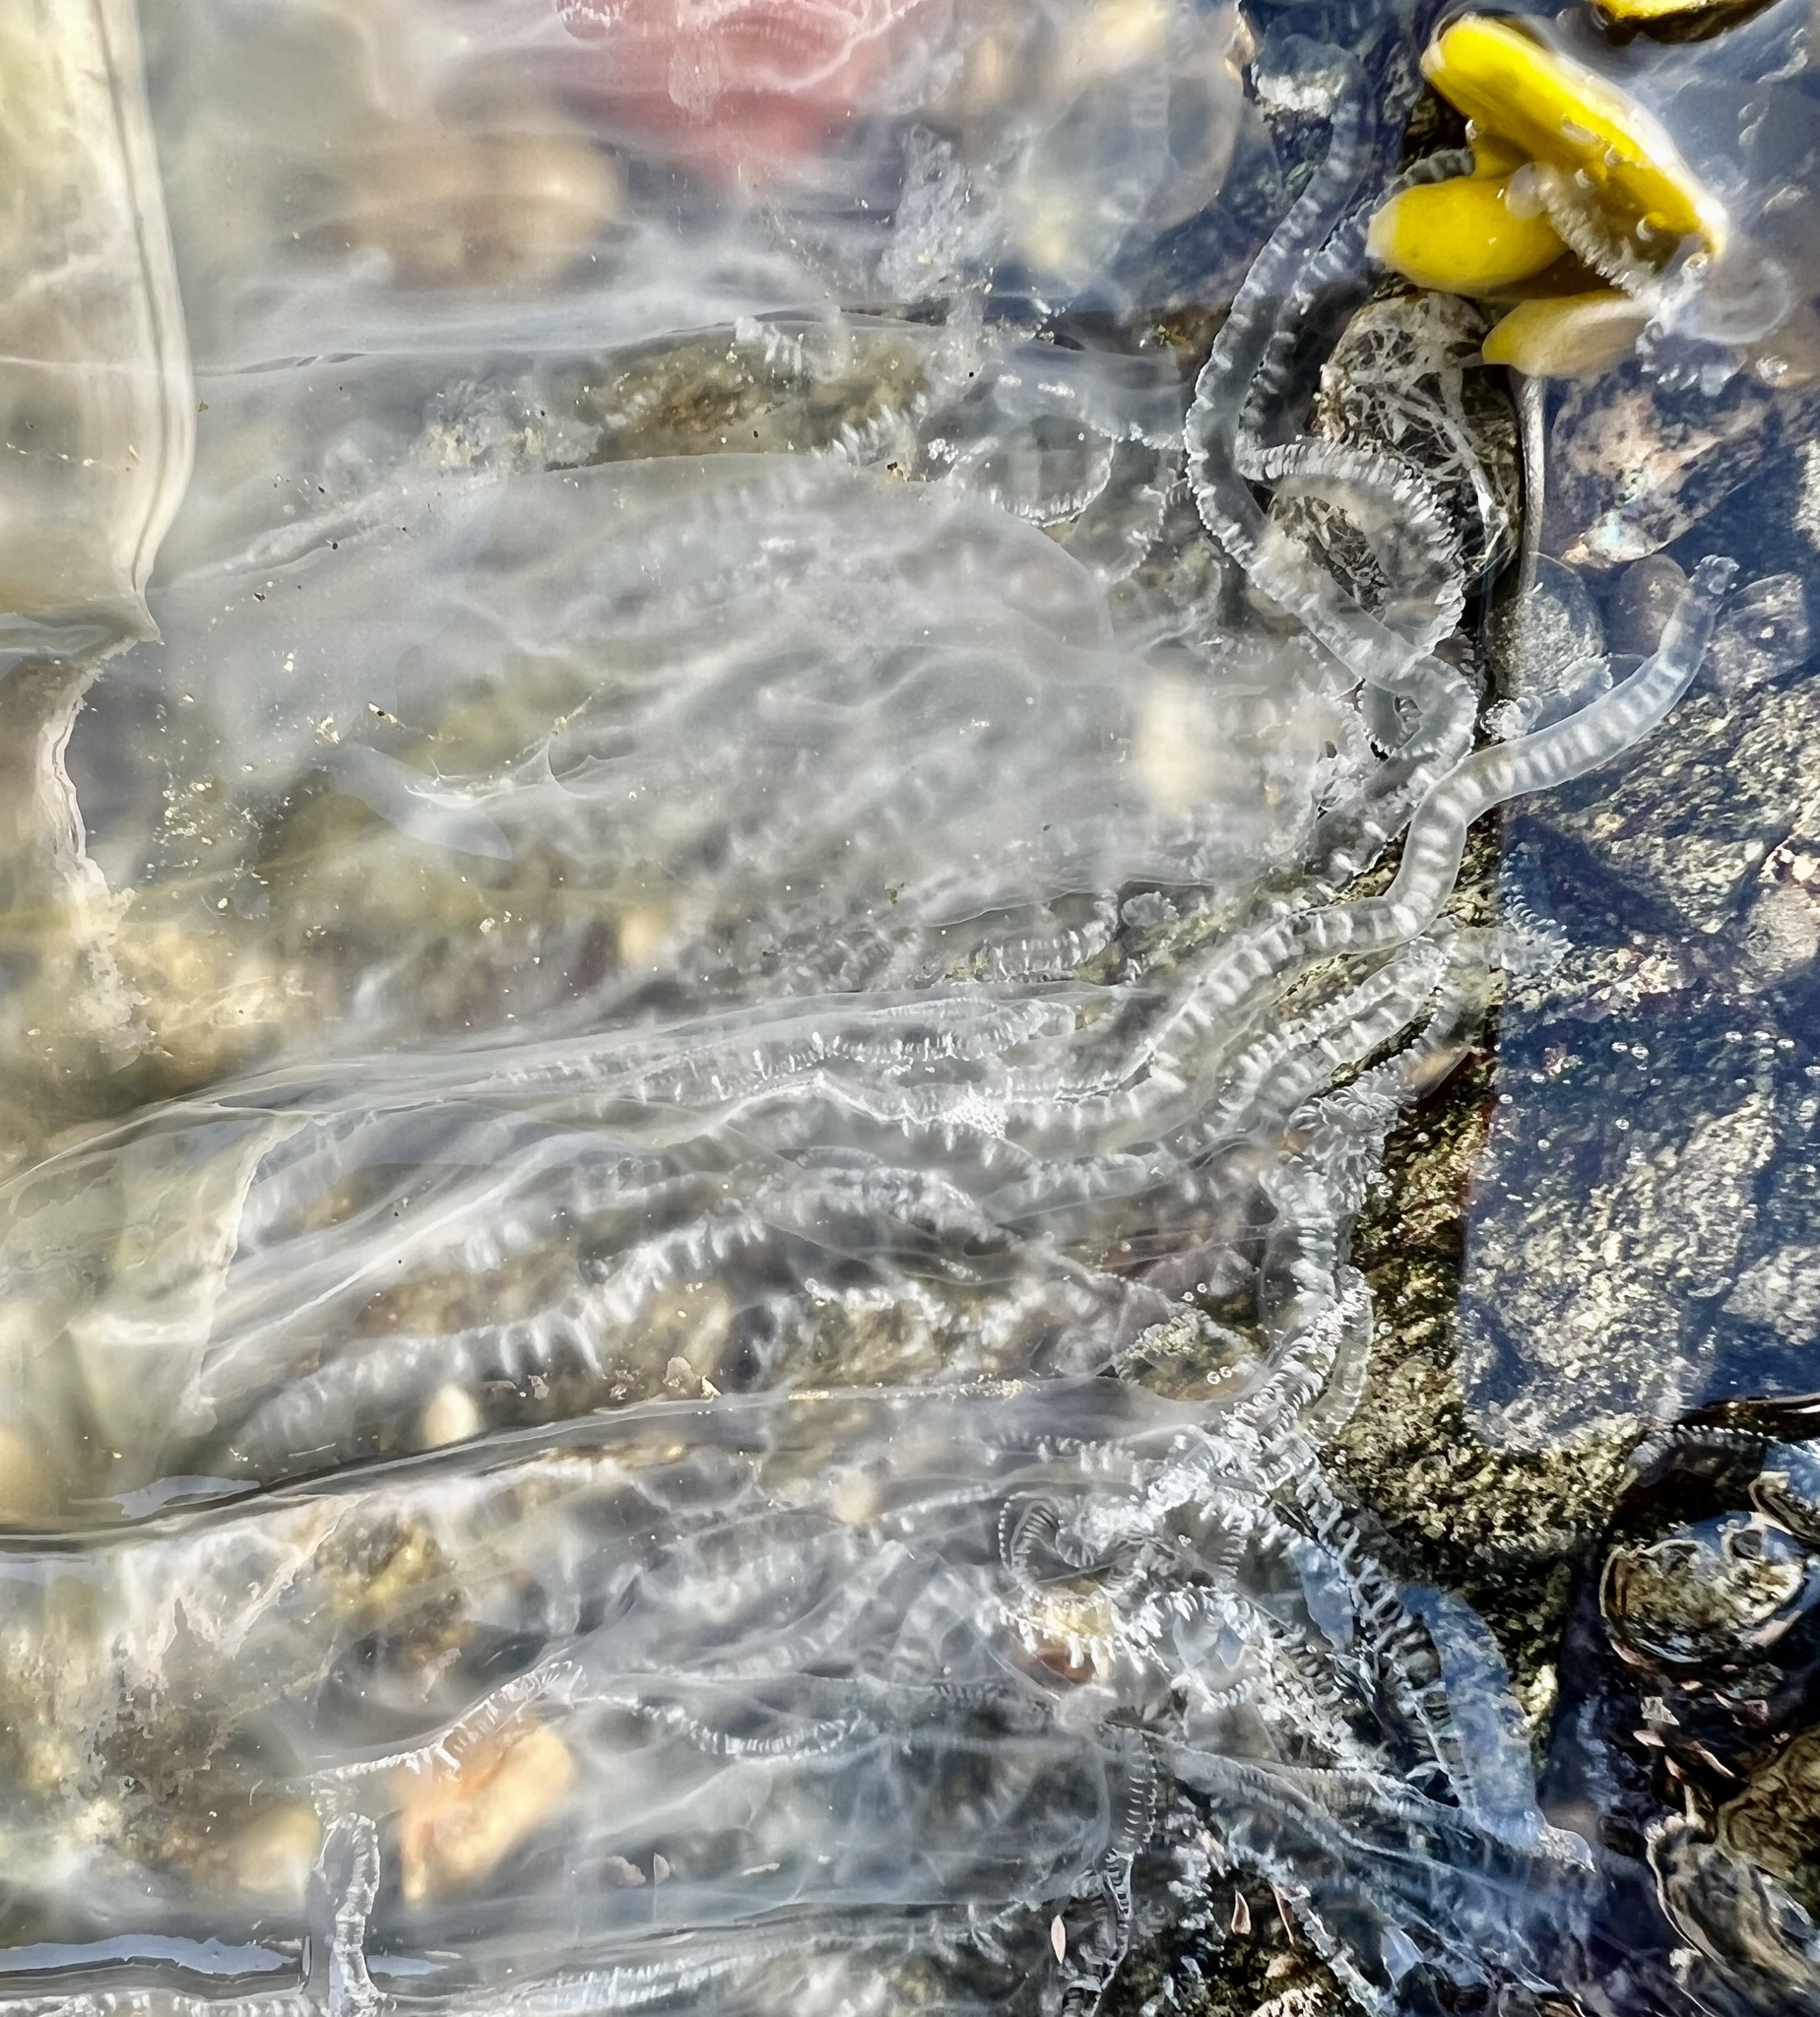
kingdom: Animalia
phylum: Cnidaria
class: Scyphozoa
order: Semaeostomeae
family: Phacellophoridae
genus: Phacellophora
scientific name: Phacellophora camtschatica
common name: Fried-egg jellyfish
